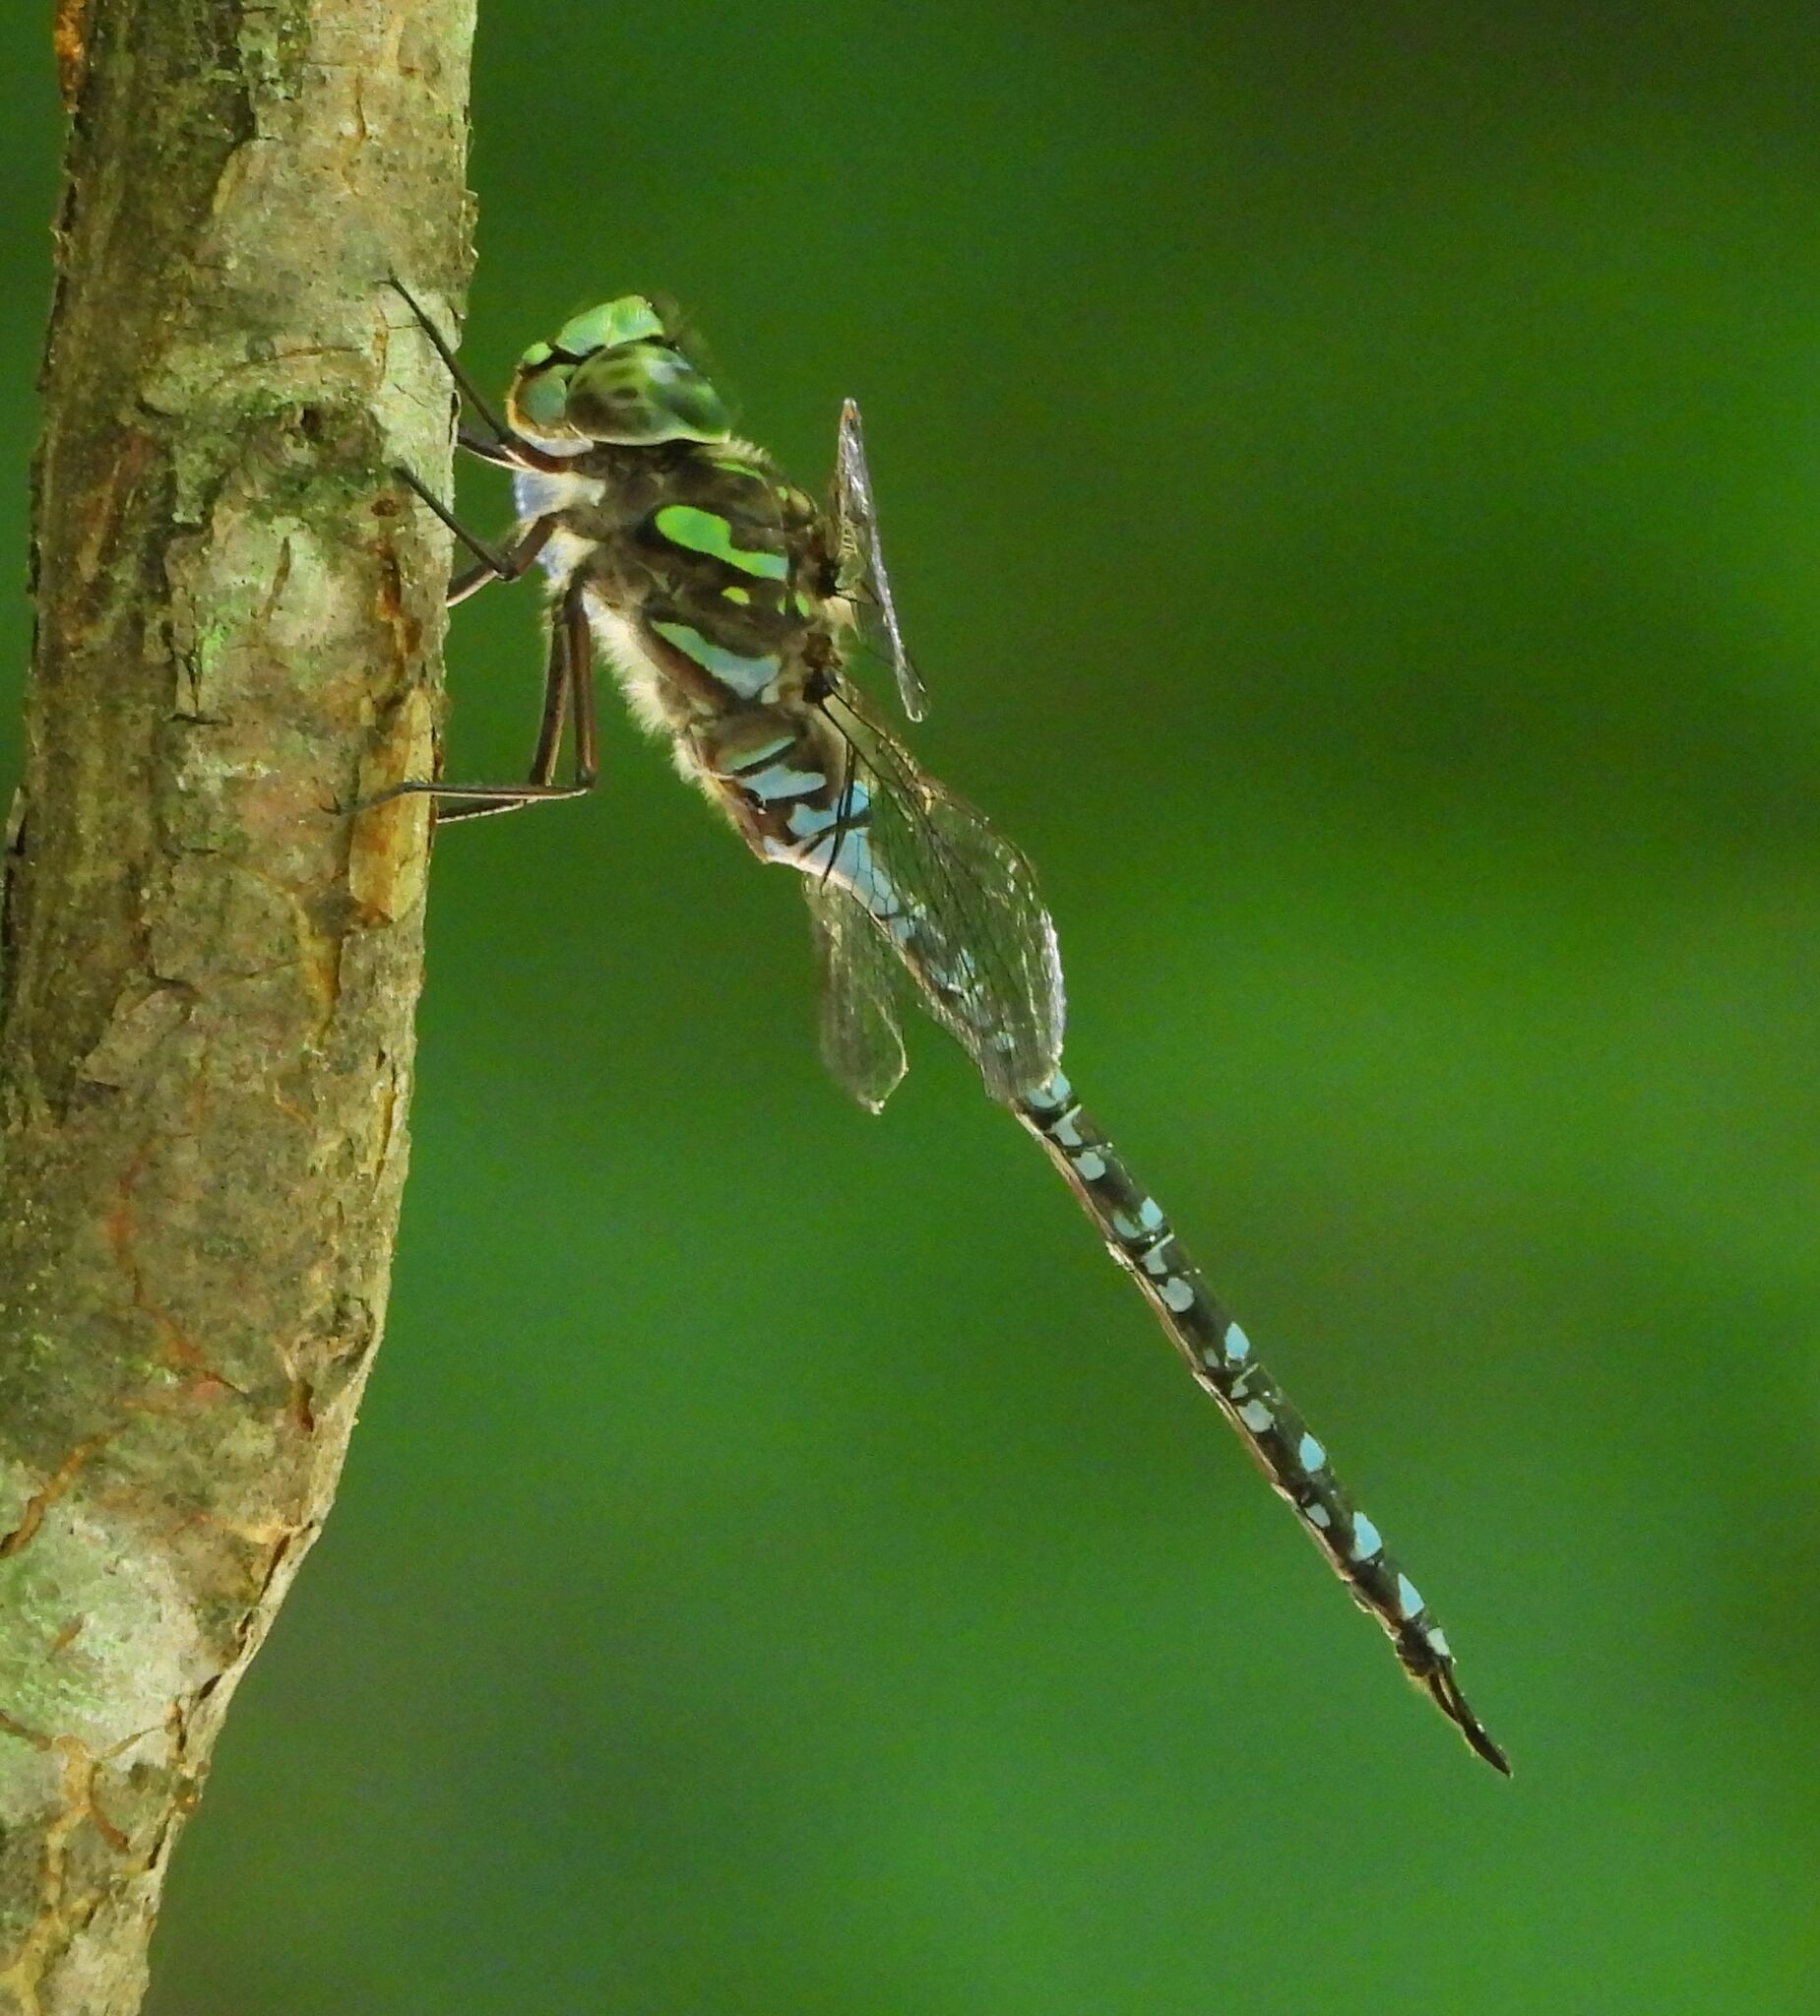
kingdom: Animalia
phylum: Arthropoda
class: Insecta
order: Odonata
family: Aeshnidae
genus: Aeshna
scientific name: Aeshna canadensis
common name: Canada darner
